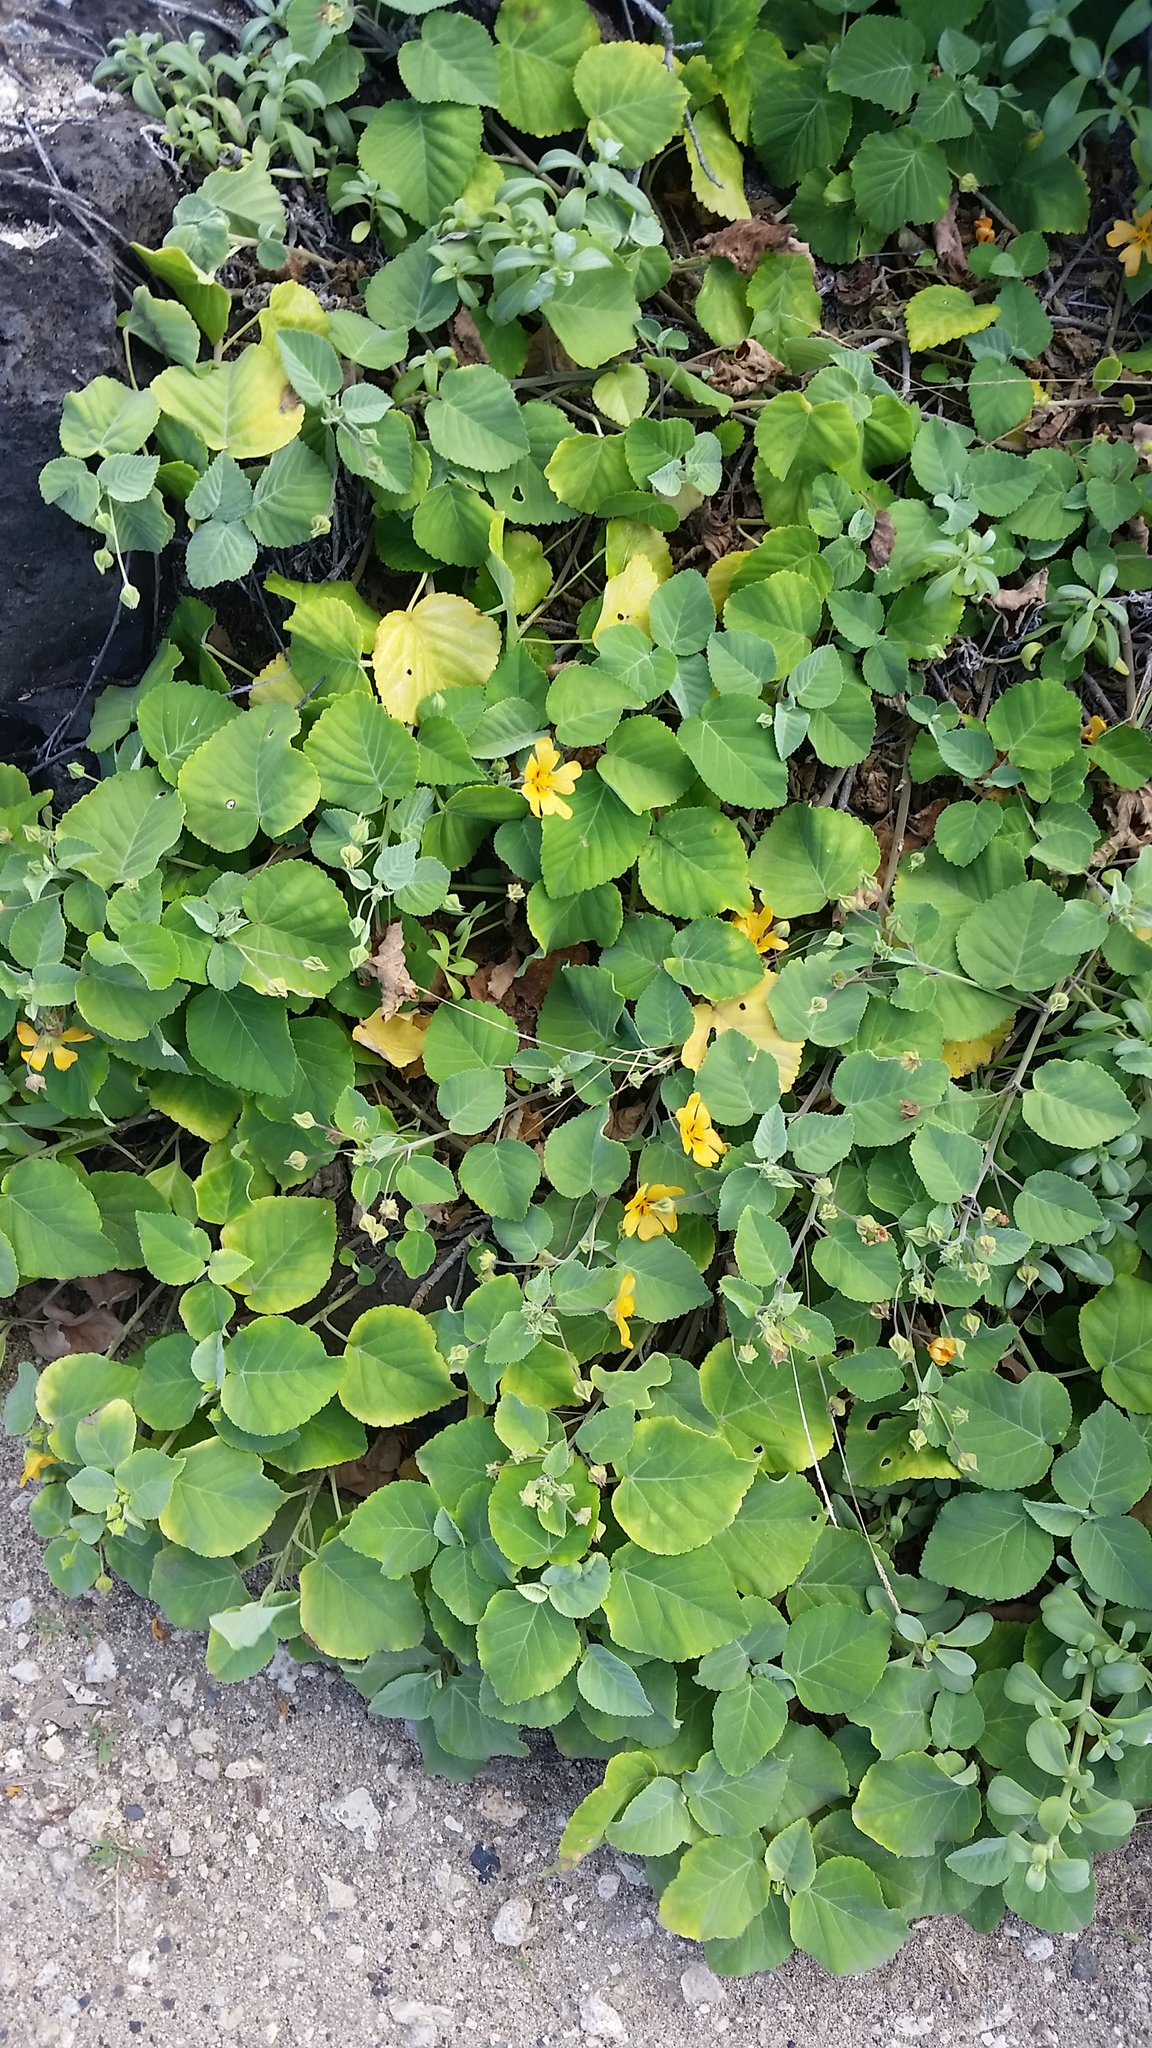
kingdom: Plantae
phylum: Tracheophyta
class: Magnoliopsida
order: Malvales
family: Malvaceae
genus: Sida
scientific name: Sida fallax
